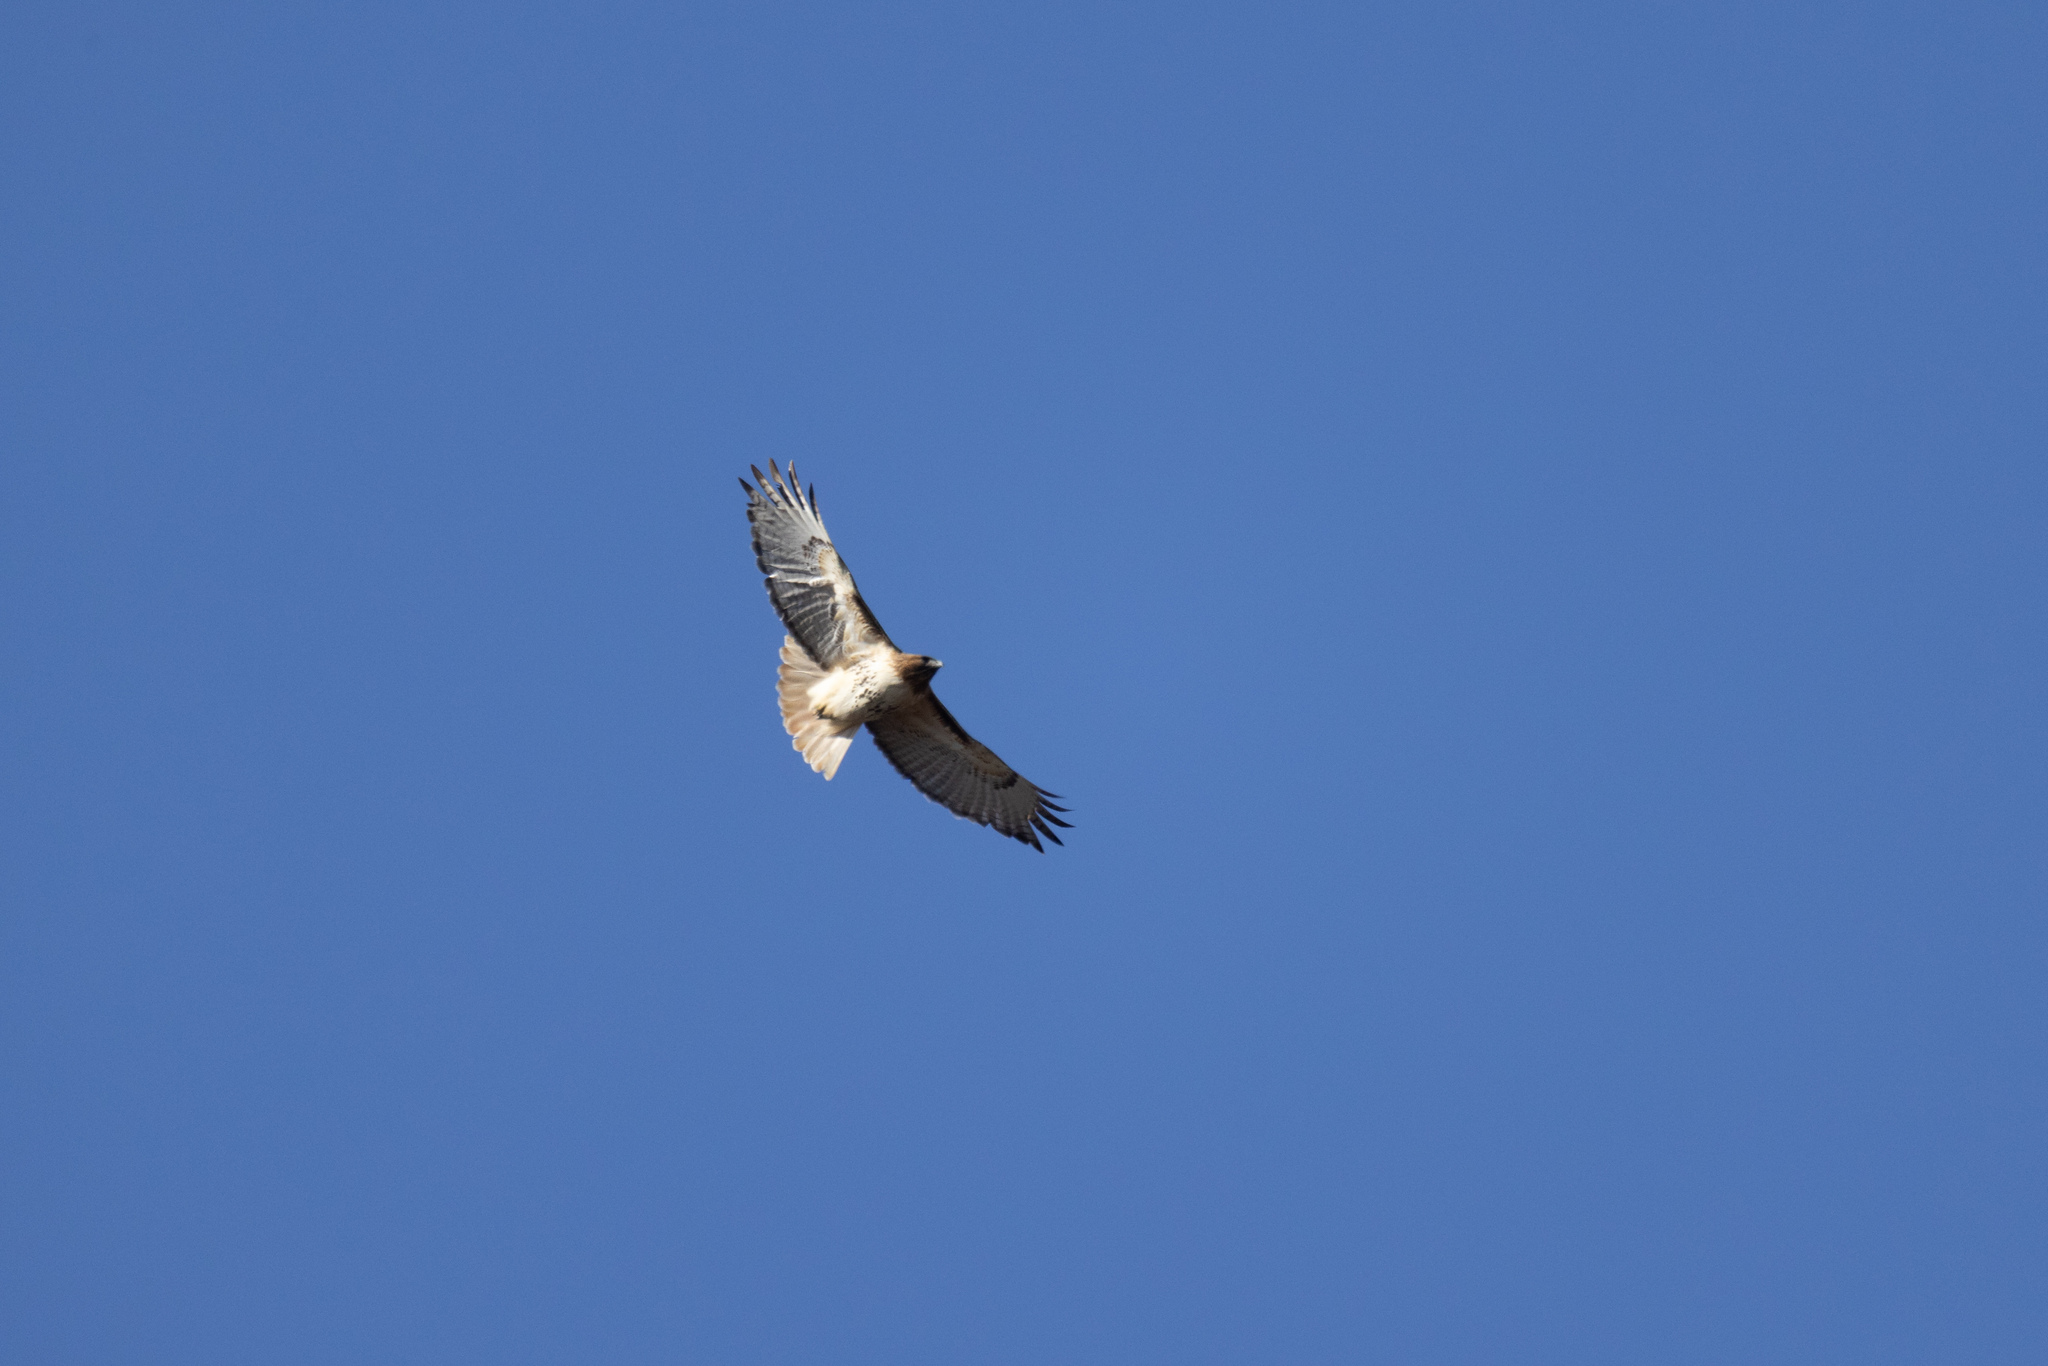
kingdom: Animalia
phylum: Chordata
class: Aves
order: Accipitriformes
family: Accipitridae
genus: Buteo
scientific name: Buteo jamaicensis
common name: Red-tailed hawk
